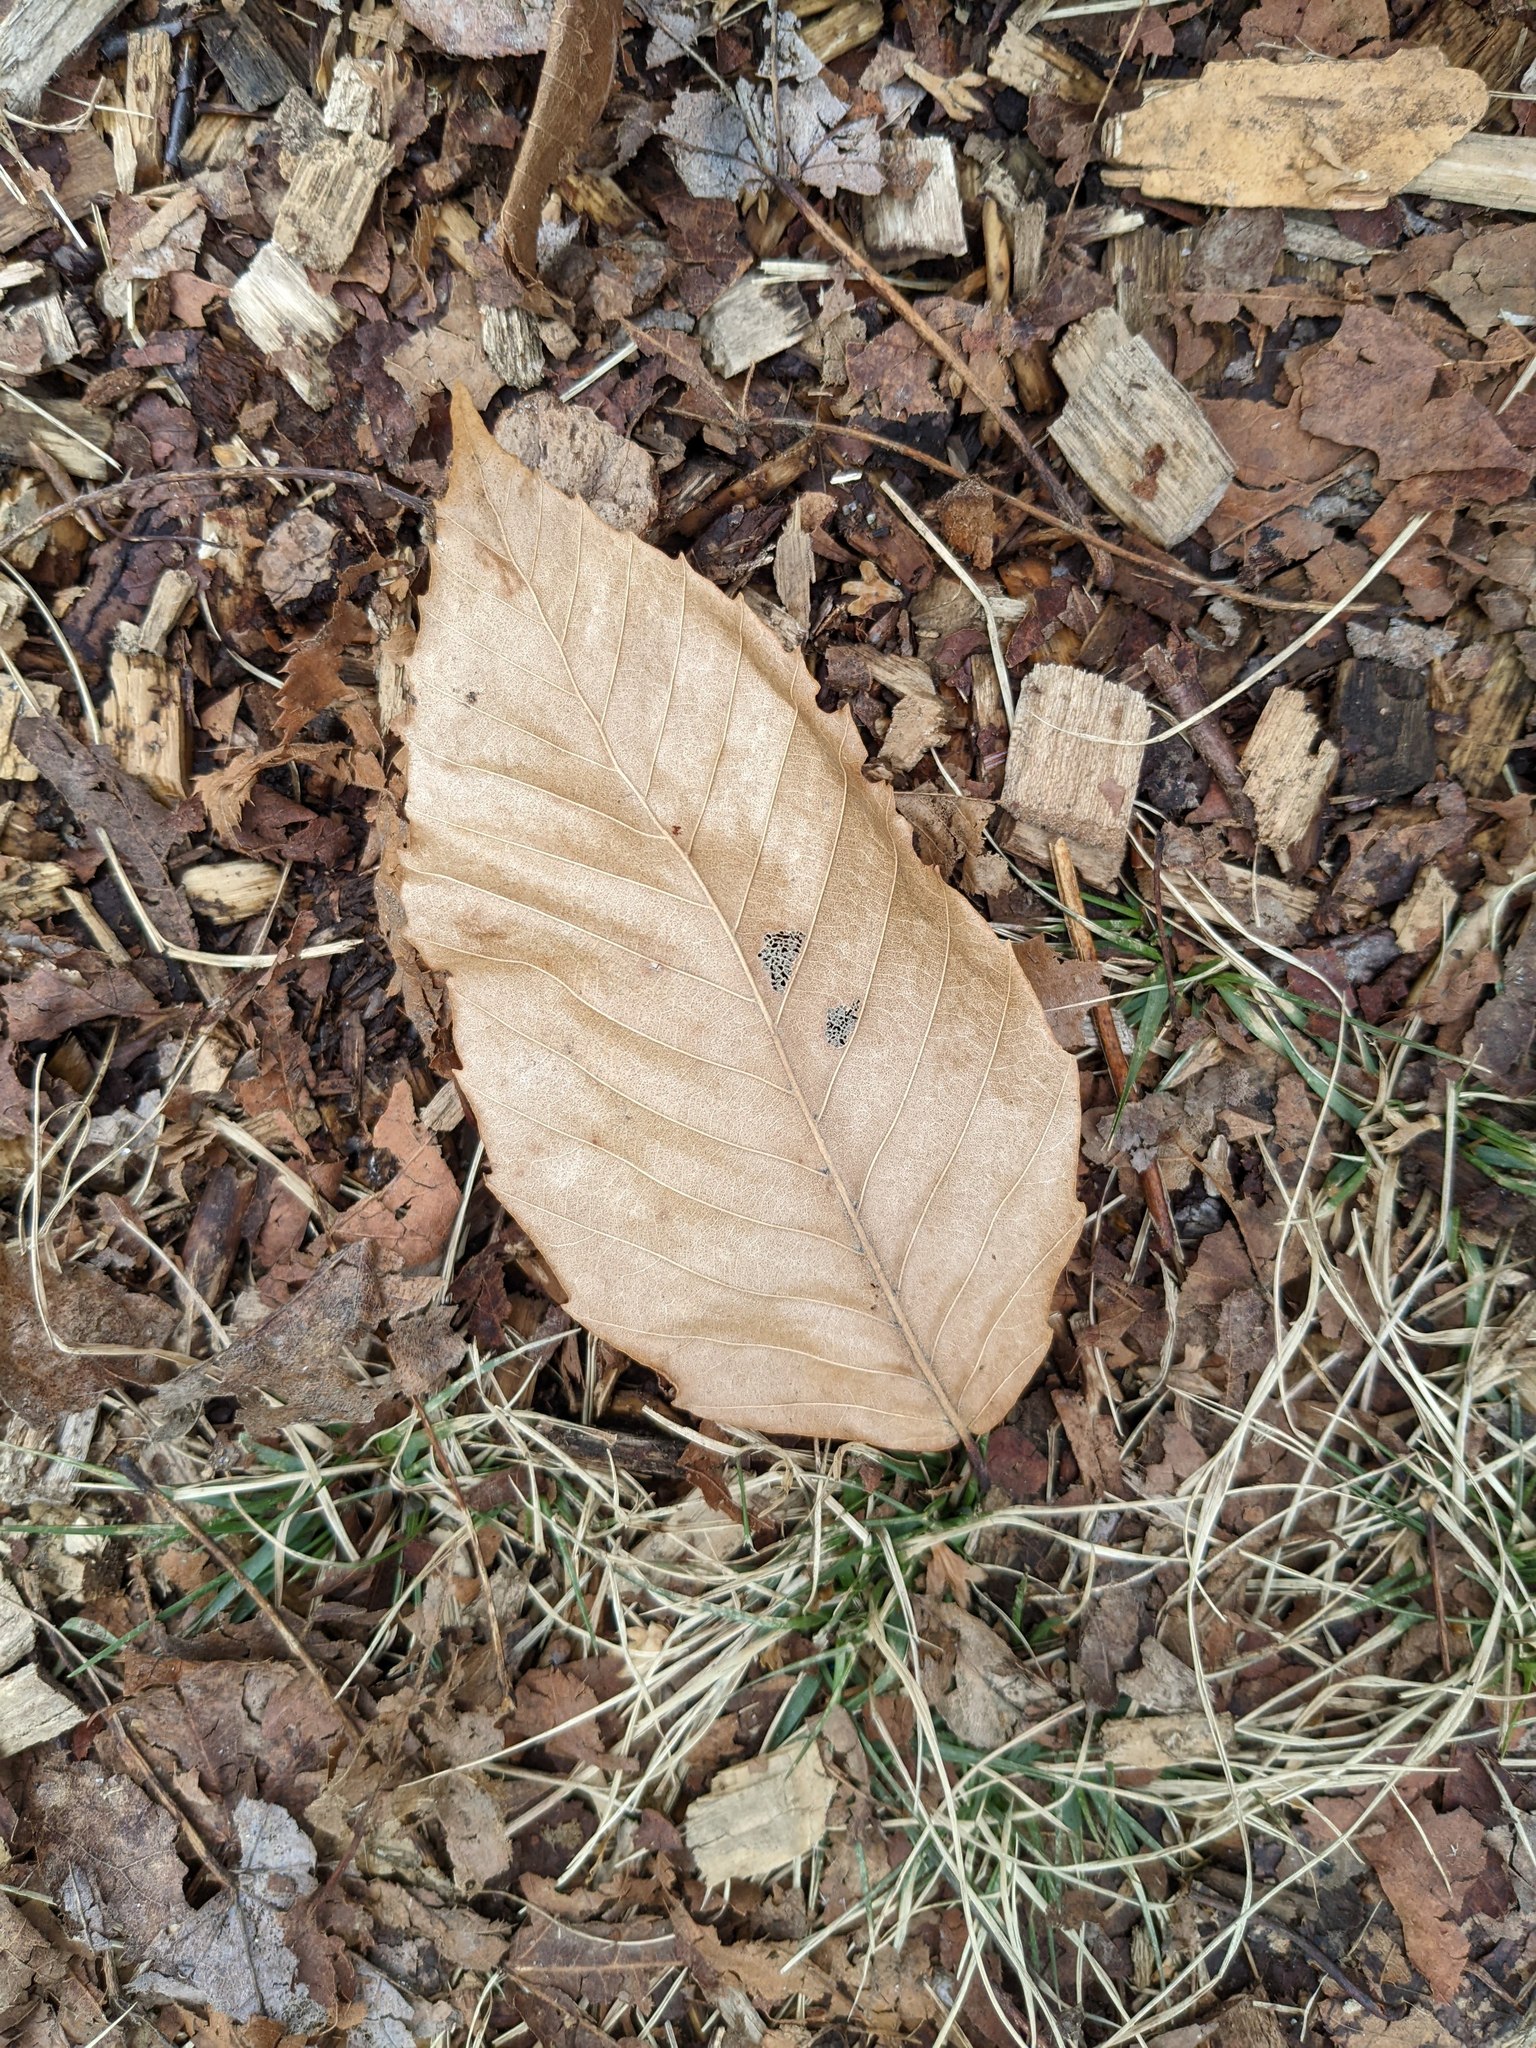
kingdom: Plantae
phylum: Tracheophyta
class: Magnoliopsida
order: Fagales
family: Fagaceae
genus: Fagus
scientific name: Fagus grandifolia
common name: American beech
